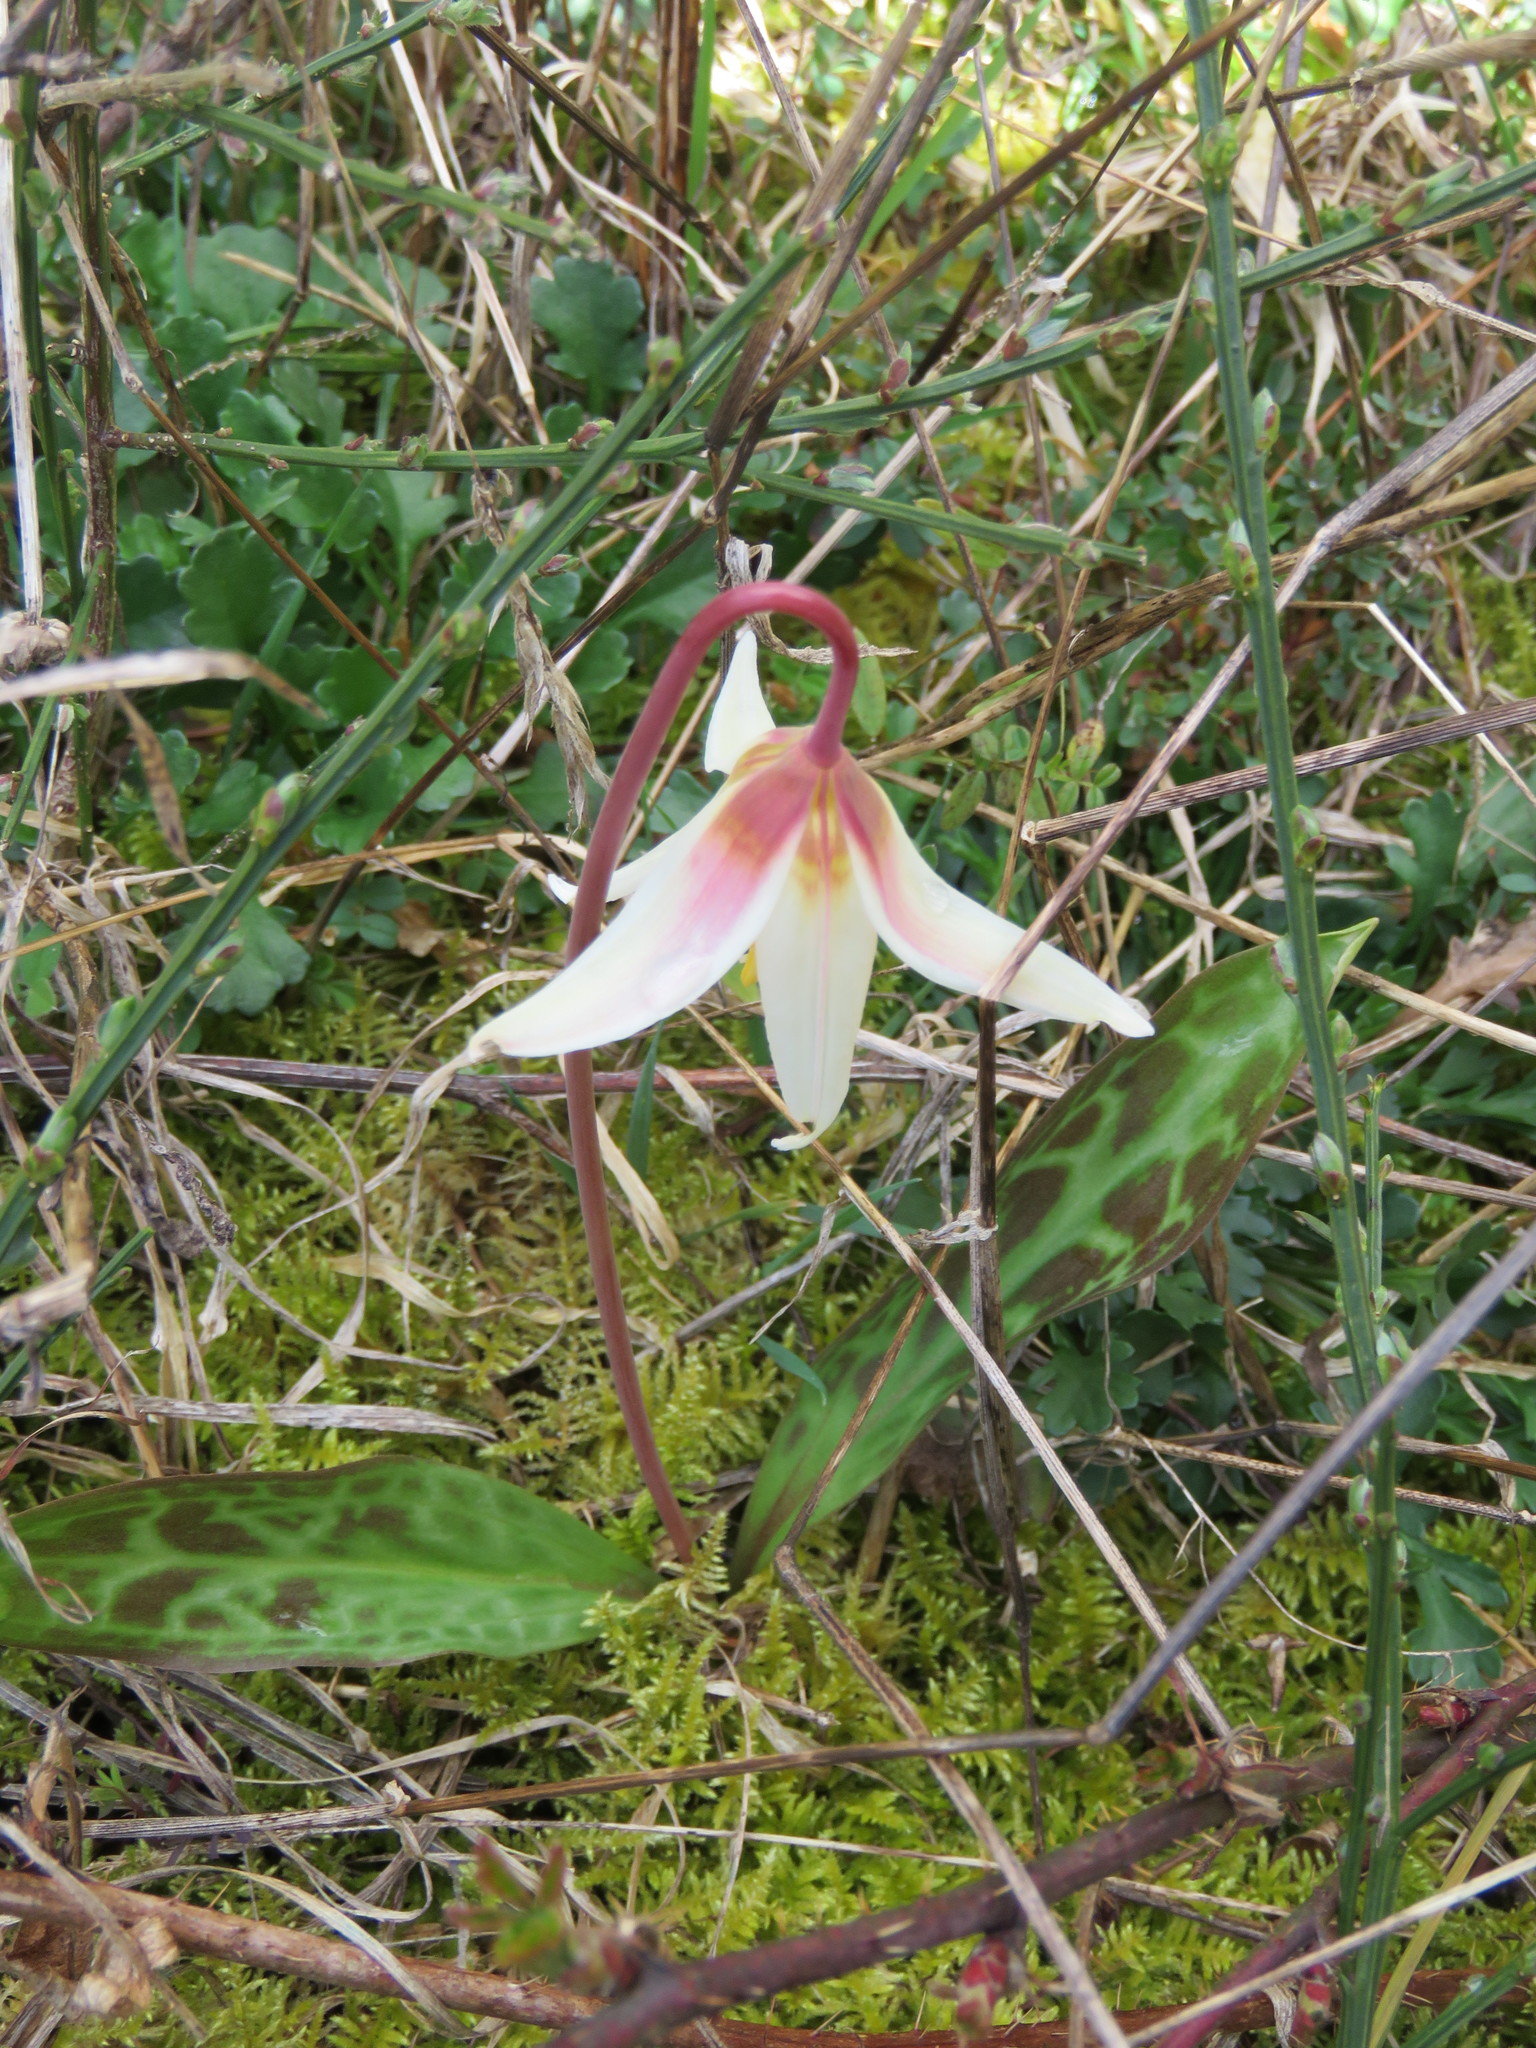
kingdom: Plantae
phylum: Tracheophyta
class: Liliopsida
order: Liliales
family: Liliaceae
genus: Erythronium
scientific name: Erythronium oregonum
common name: Giant adder's-tongue
